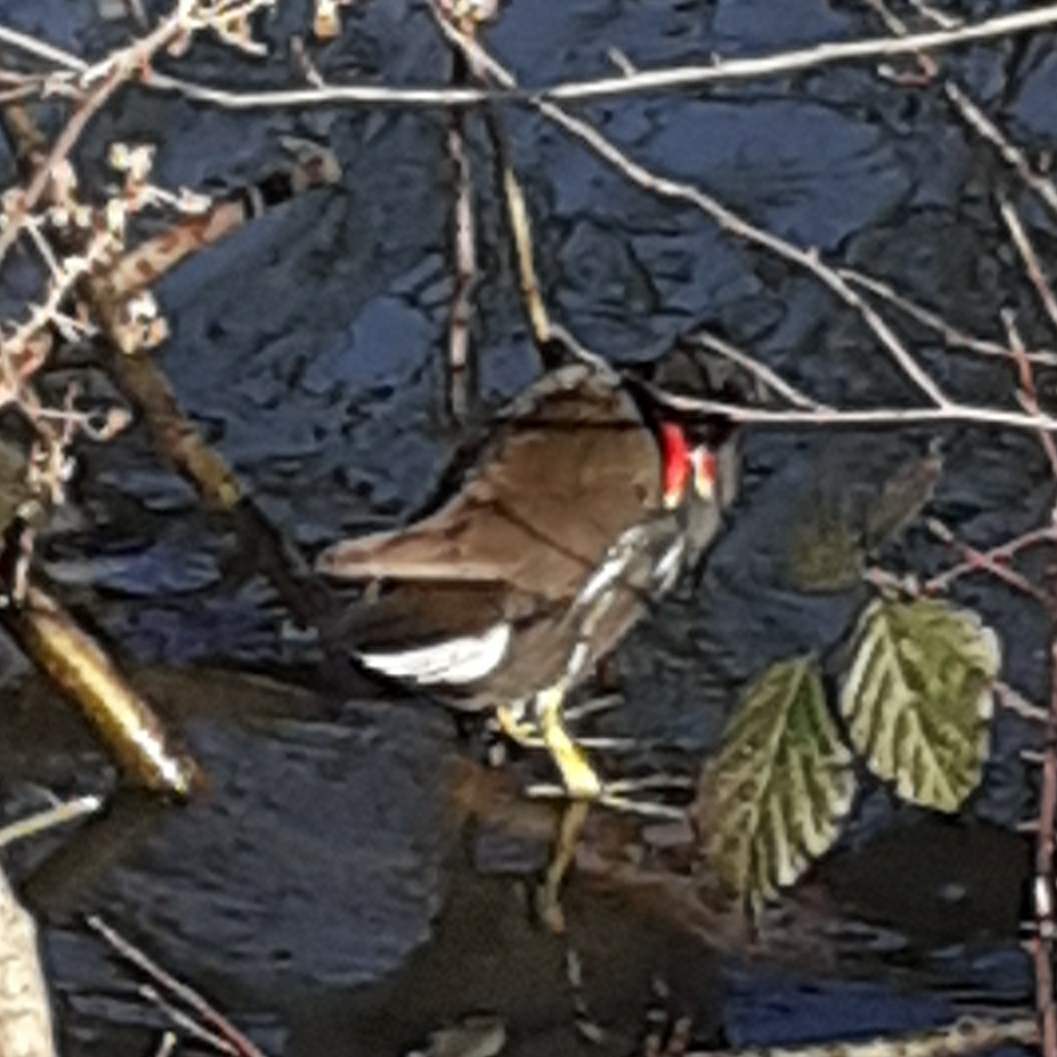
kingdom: Animalia
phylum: Chordata
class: Aves
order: Gruiformes
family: Rallidae
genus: Gallinula
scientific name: Gallinula chloropus
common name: Common moorhen
